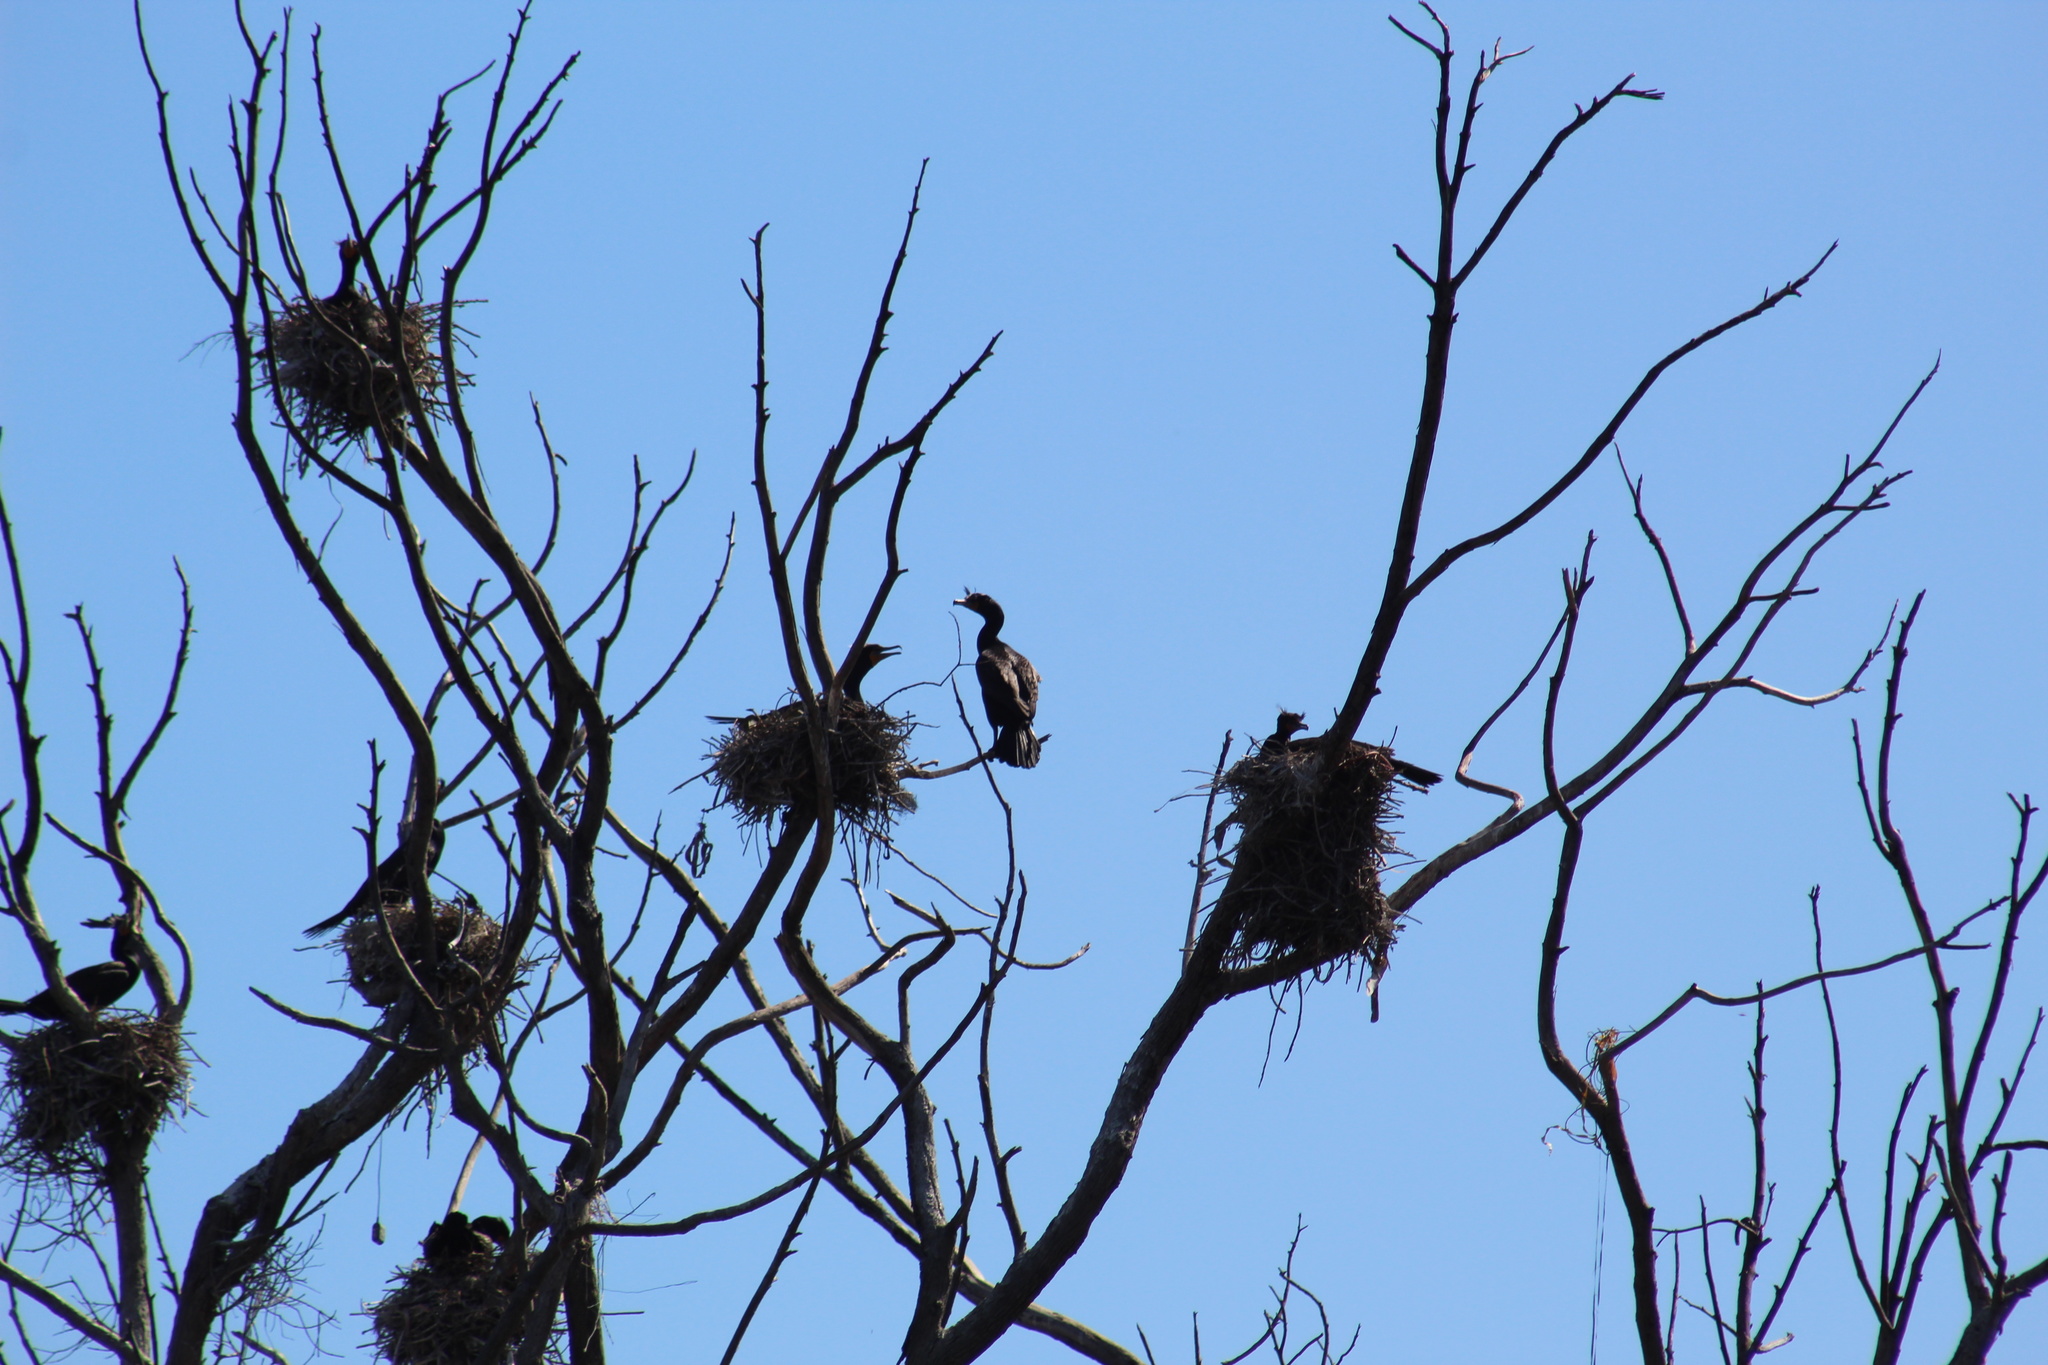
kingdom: Animalia
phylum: Chordata
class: Aves
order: Suliformes
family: Phalacrocoracidae
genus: Phalacrocorax
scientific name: Phalacrocorax auritus
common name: Double-crested cormorant
